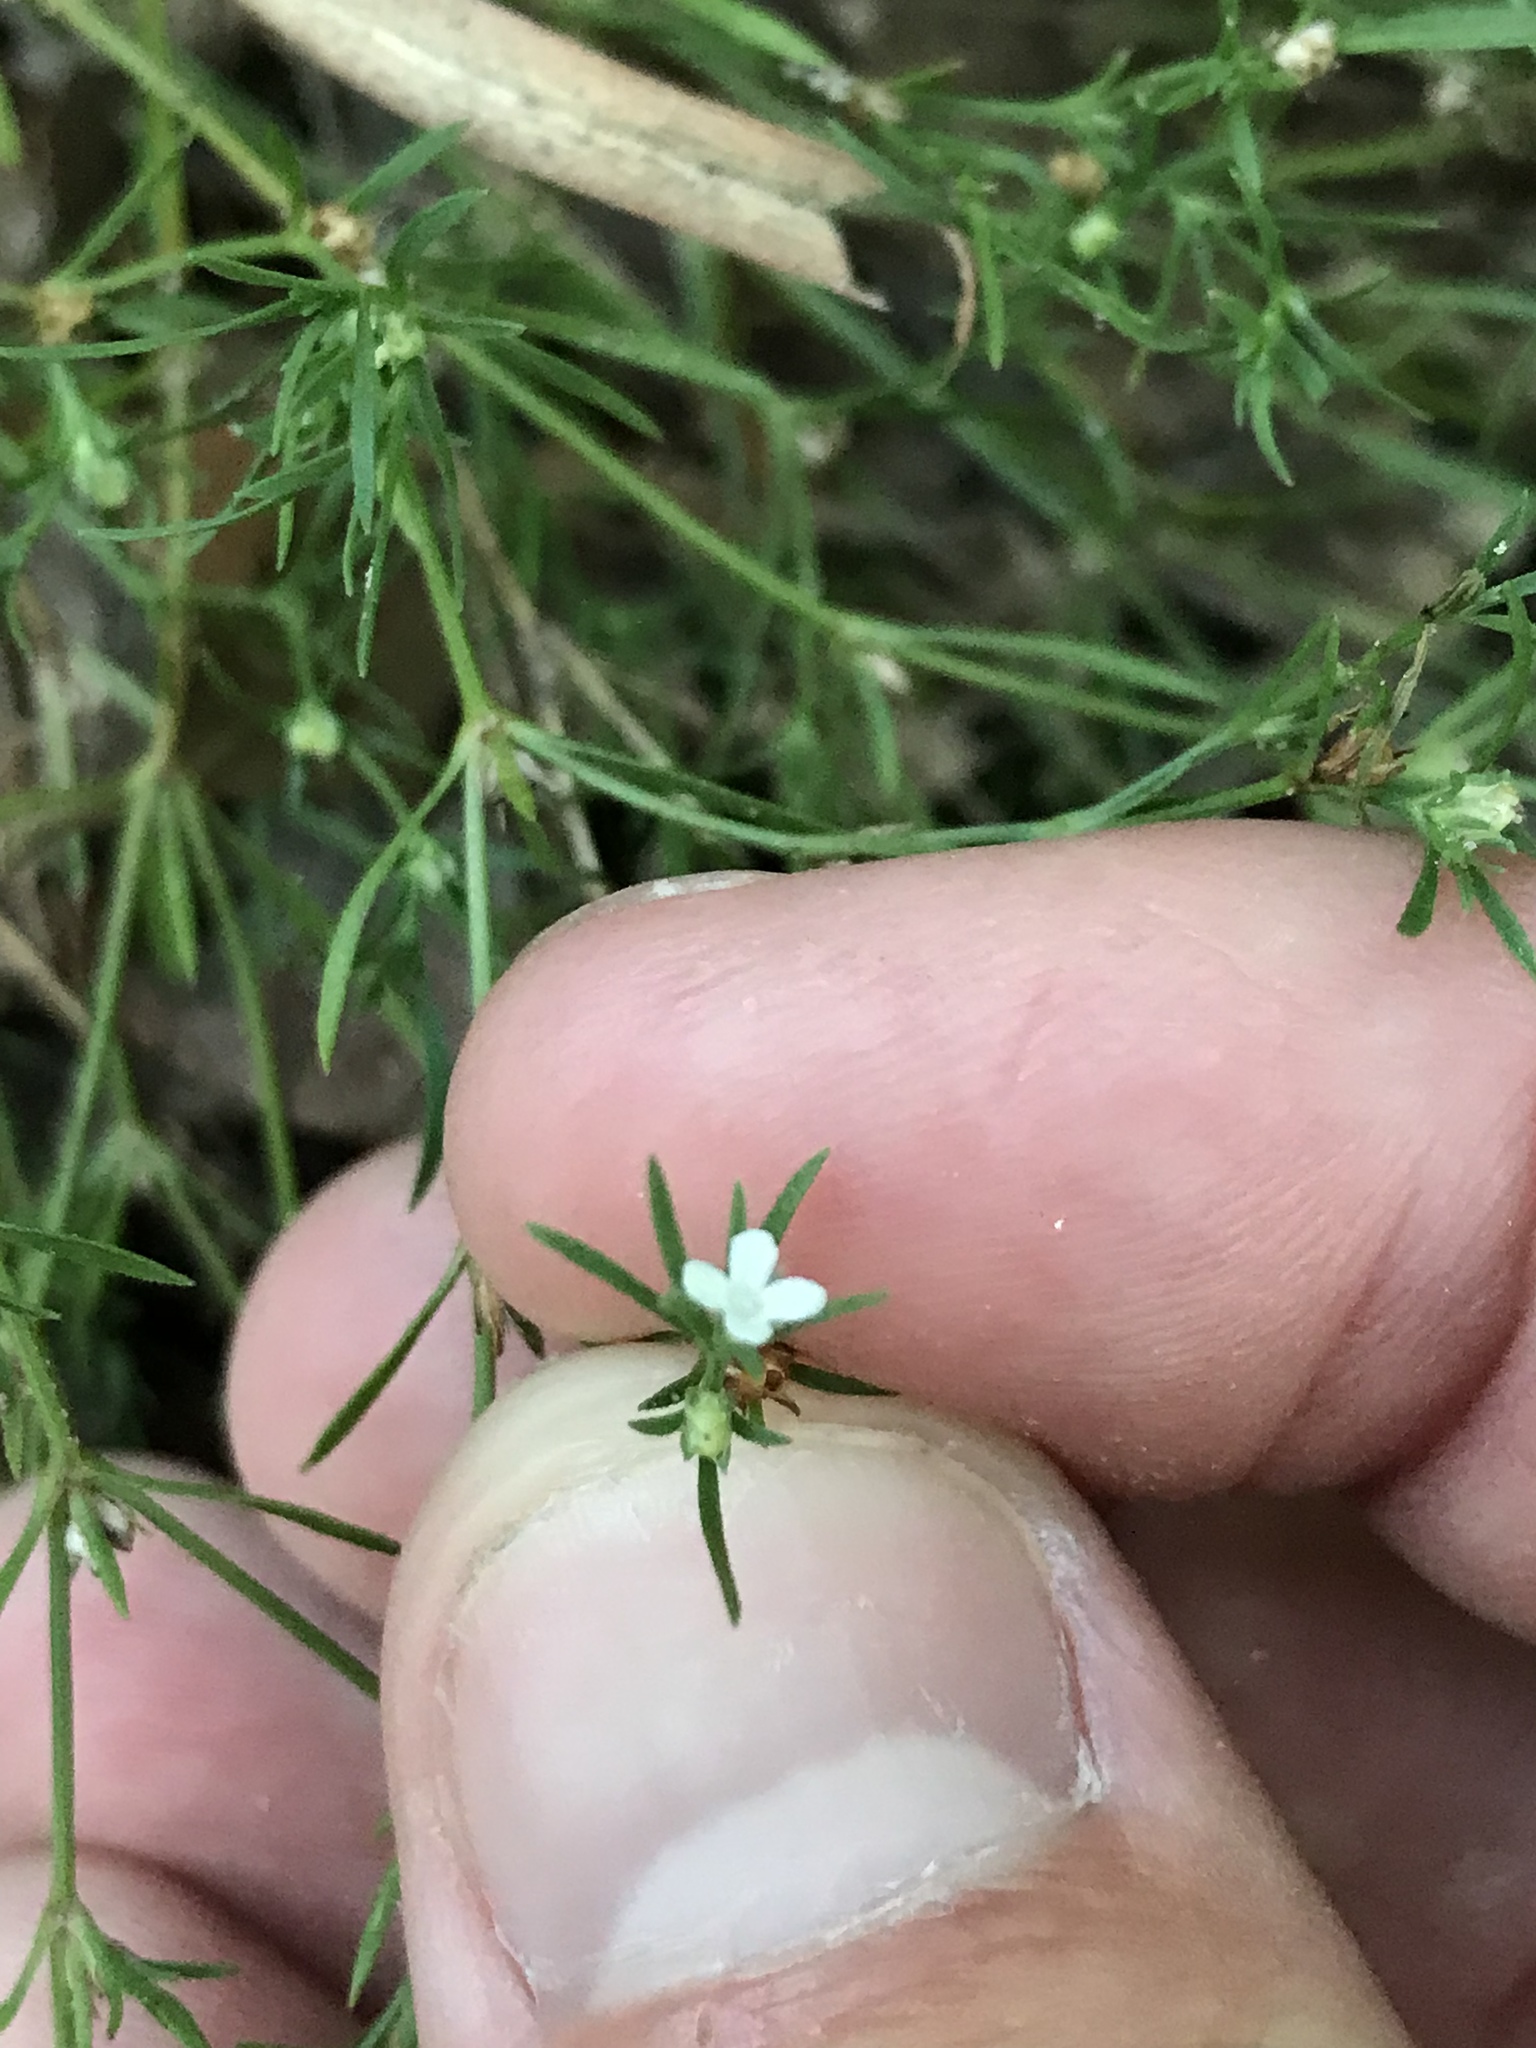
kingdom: Plantae
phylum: Tracheophyta
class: Magnoliopsida
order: Lamiales
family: Tetrachondraceae
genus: Polypremum
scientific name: Polypremum procumbens
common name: Juniper-leaf
